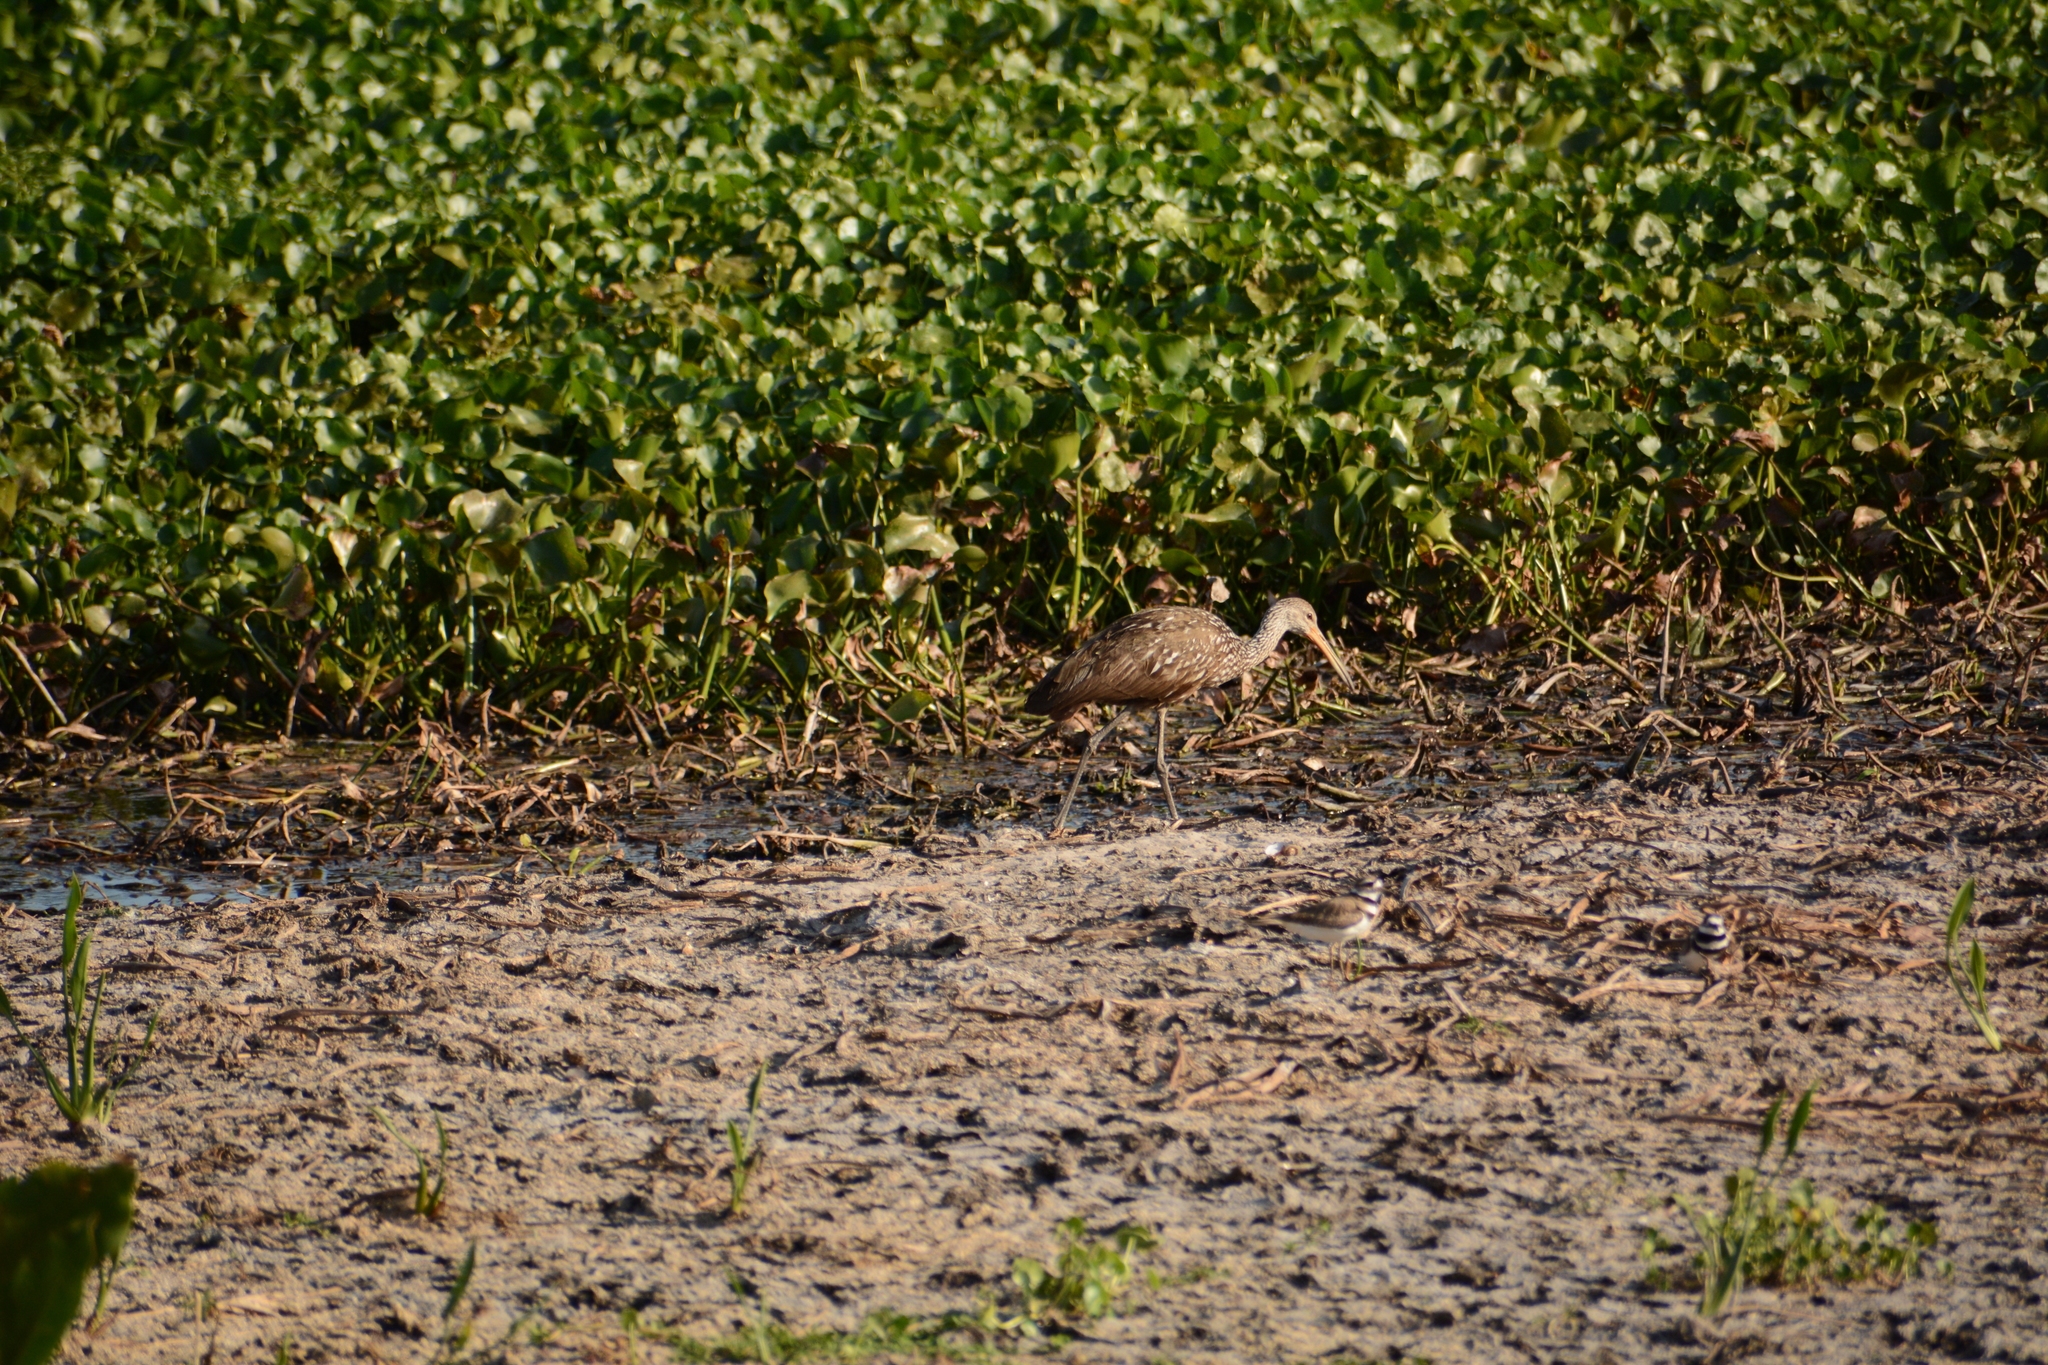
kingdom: Animalia
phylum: Chordata
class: Aves
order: Gruiformes
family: Aramidae
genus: Aramus
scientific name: Aramus guarauna
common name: Limpkin
